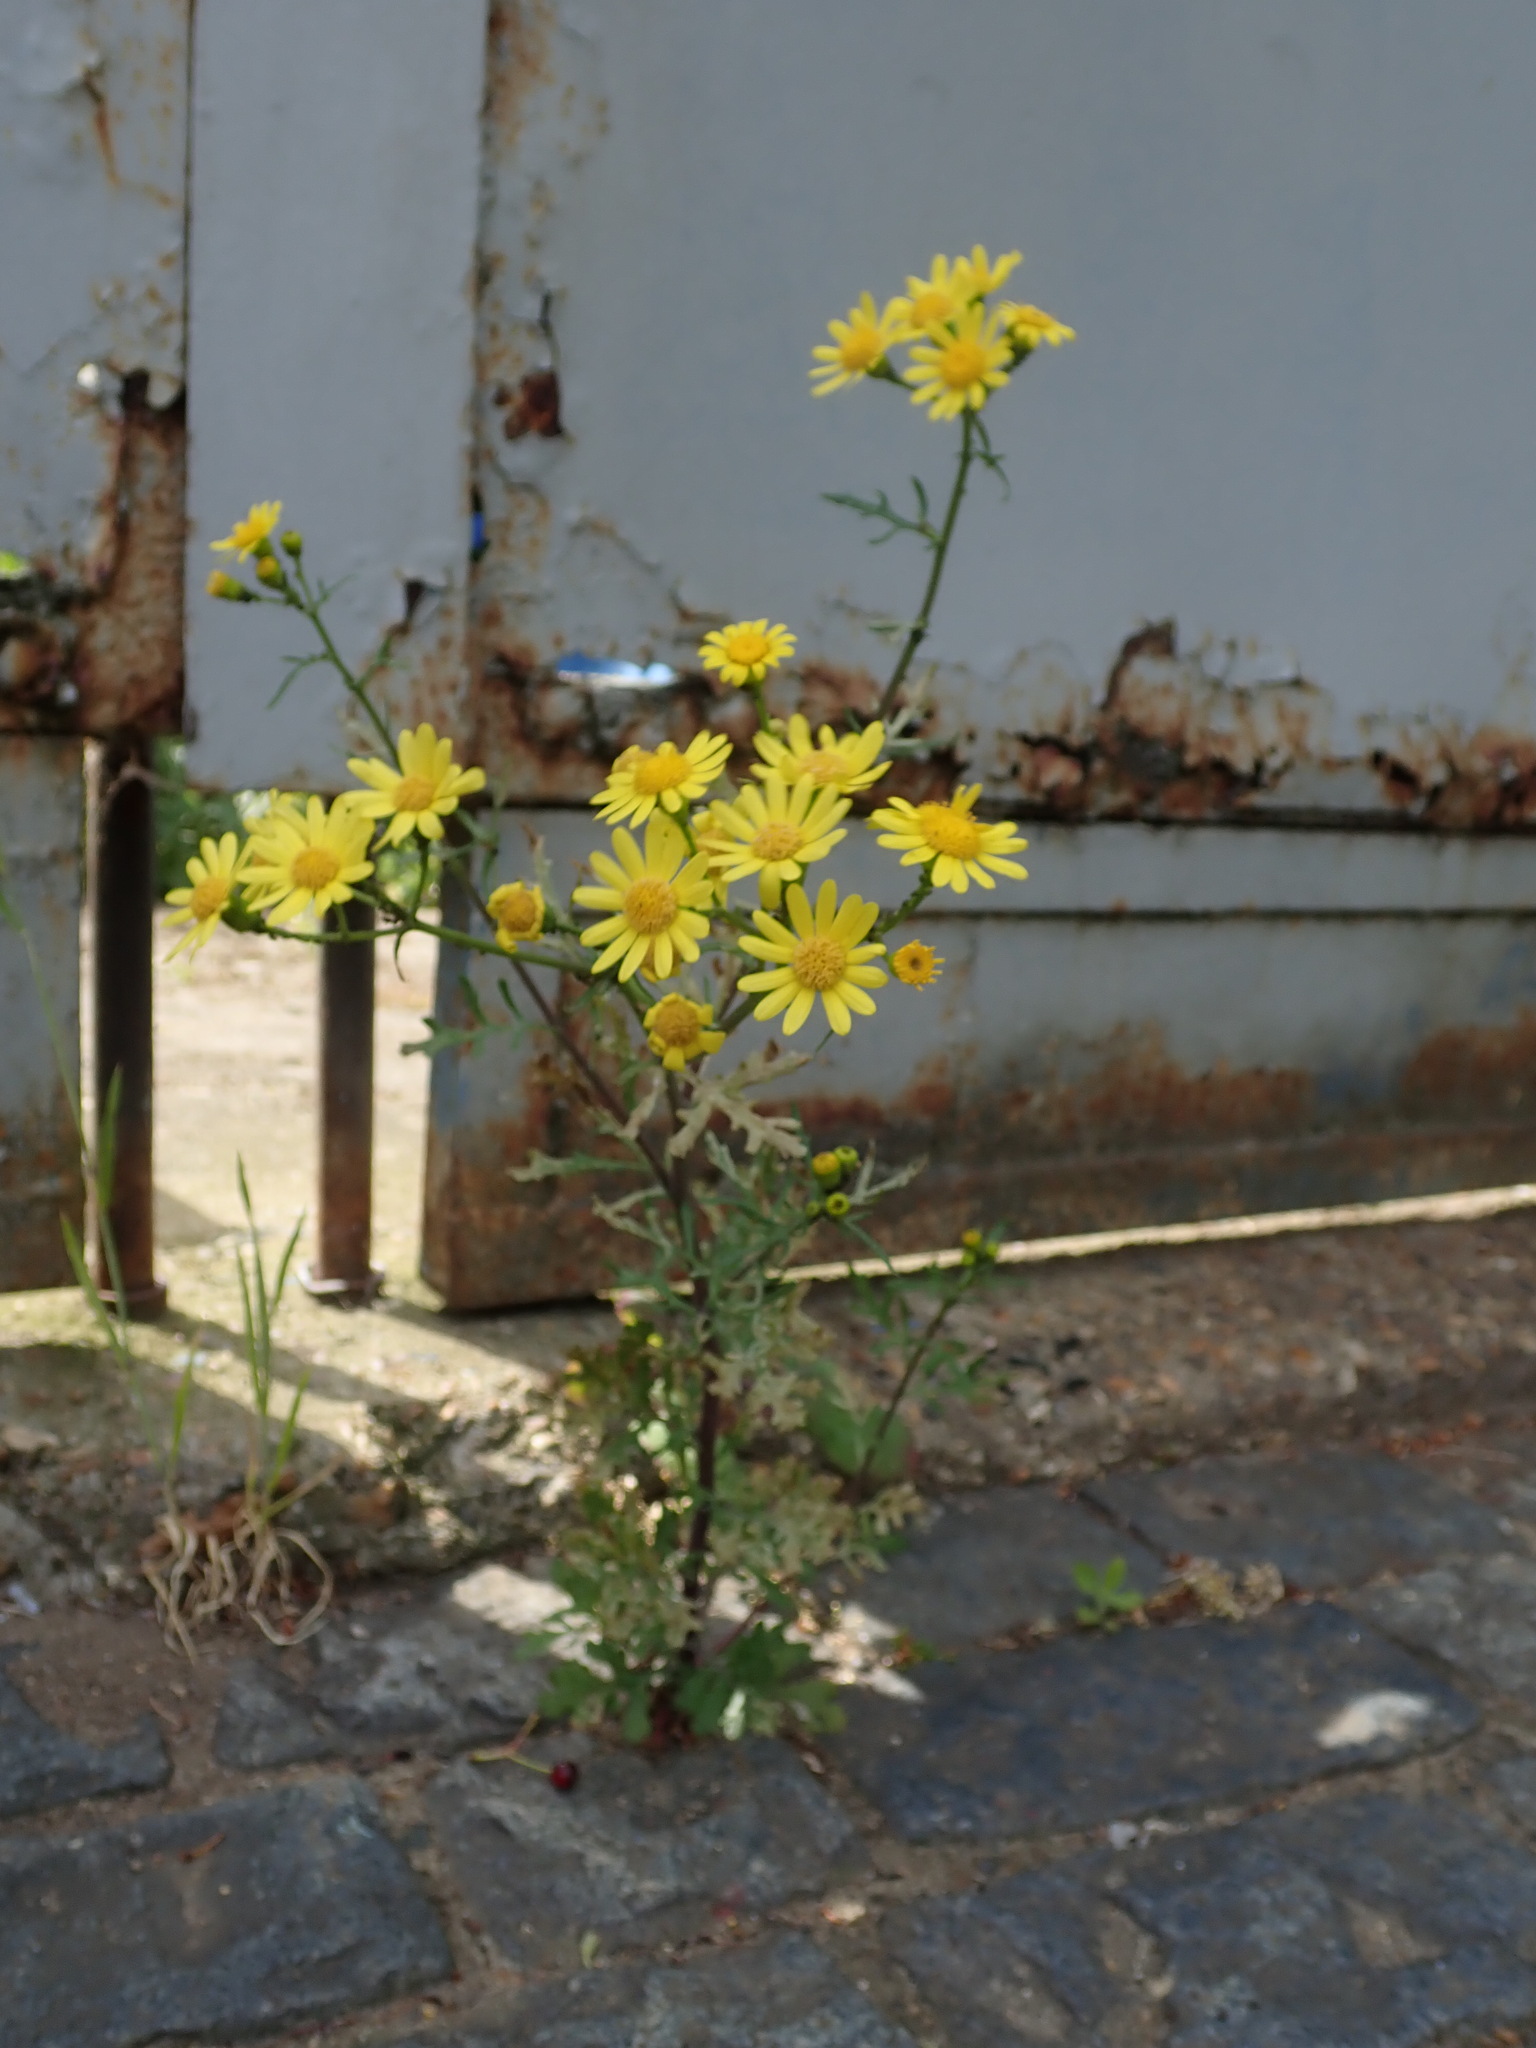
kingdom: Plantae
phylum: Tracheophyta
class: Magnoliopsida
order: Asterales
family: Asteraceae
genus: Senecio
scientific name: Senecio squalidus
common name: Oxford ragwort
